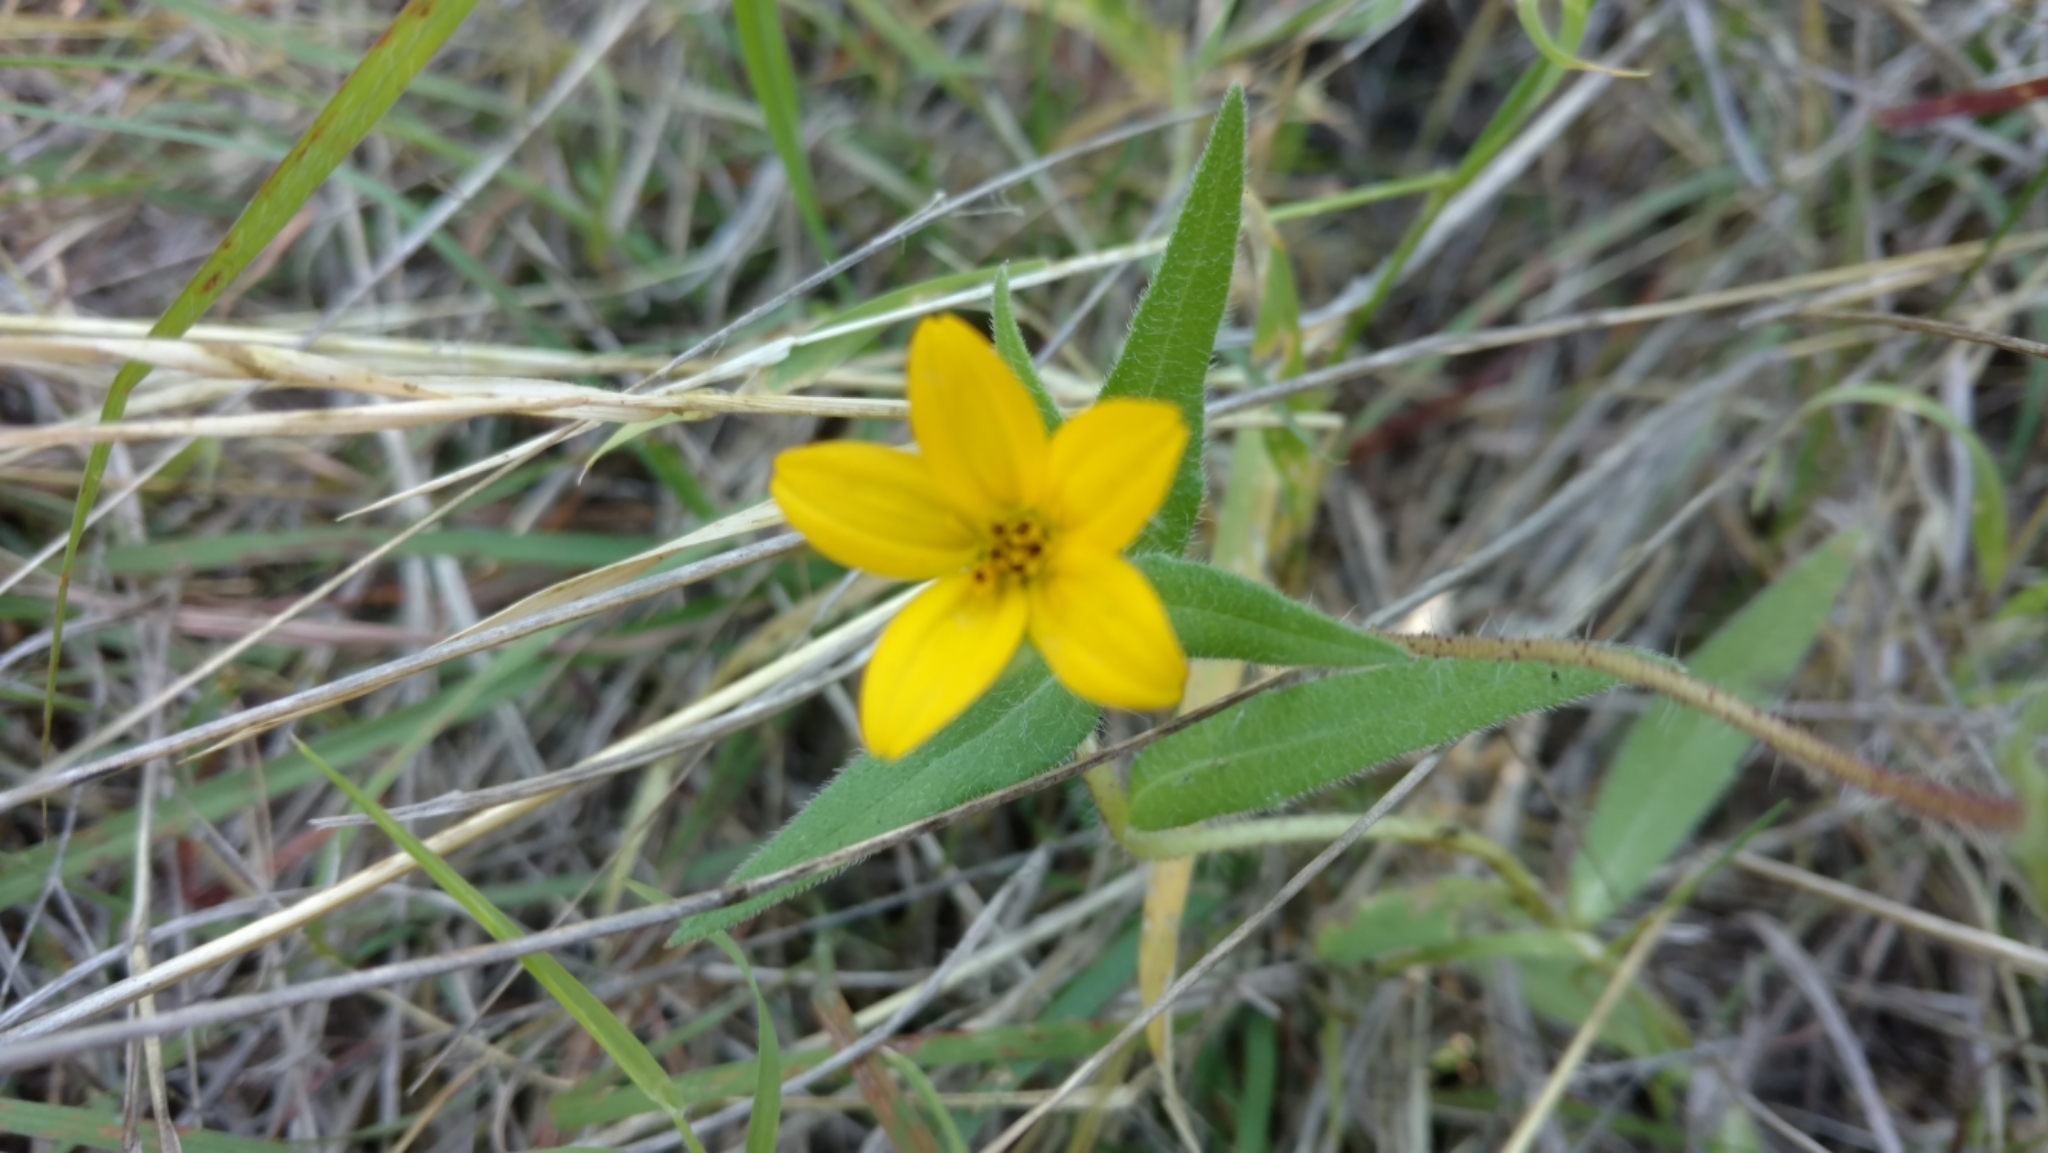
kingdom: Plantae
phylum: Tracheophyta
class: Magnoliopsida
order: Asterales
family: Asteraceae
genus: Lindheimera
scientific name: Lindheimera texana
